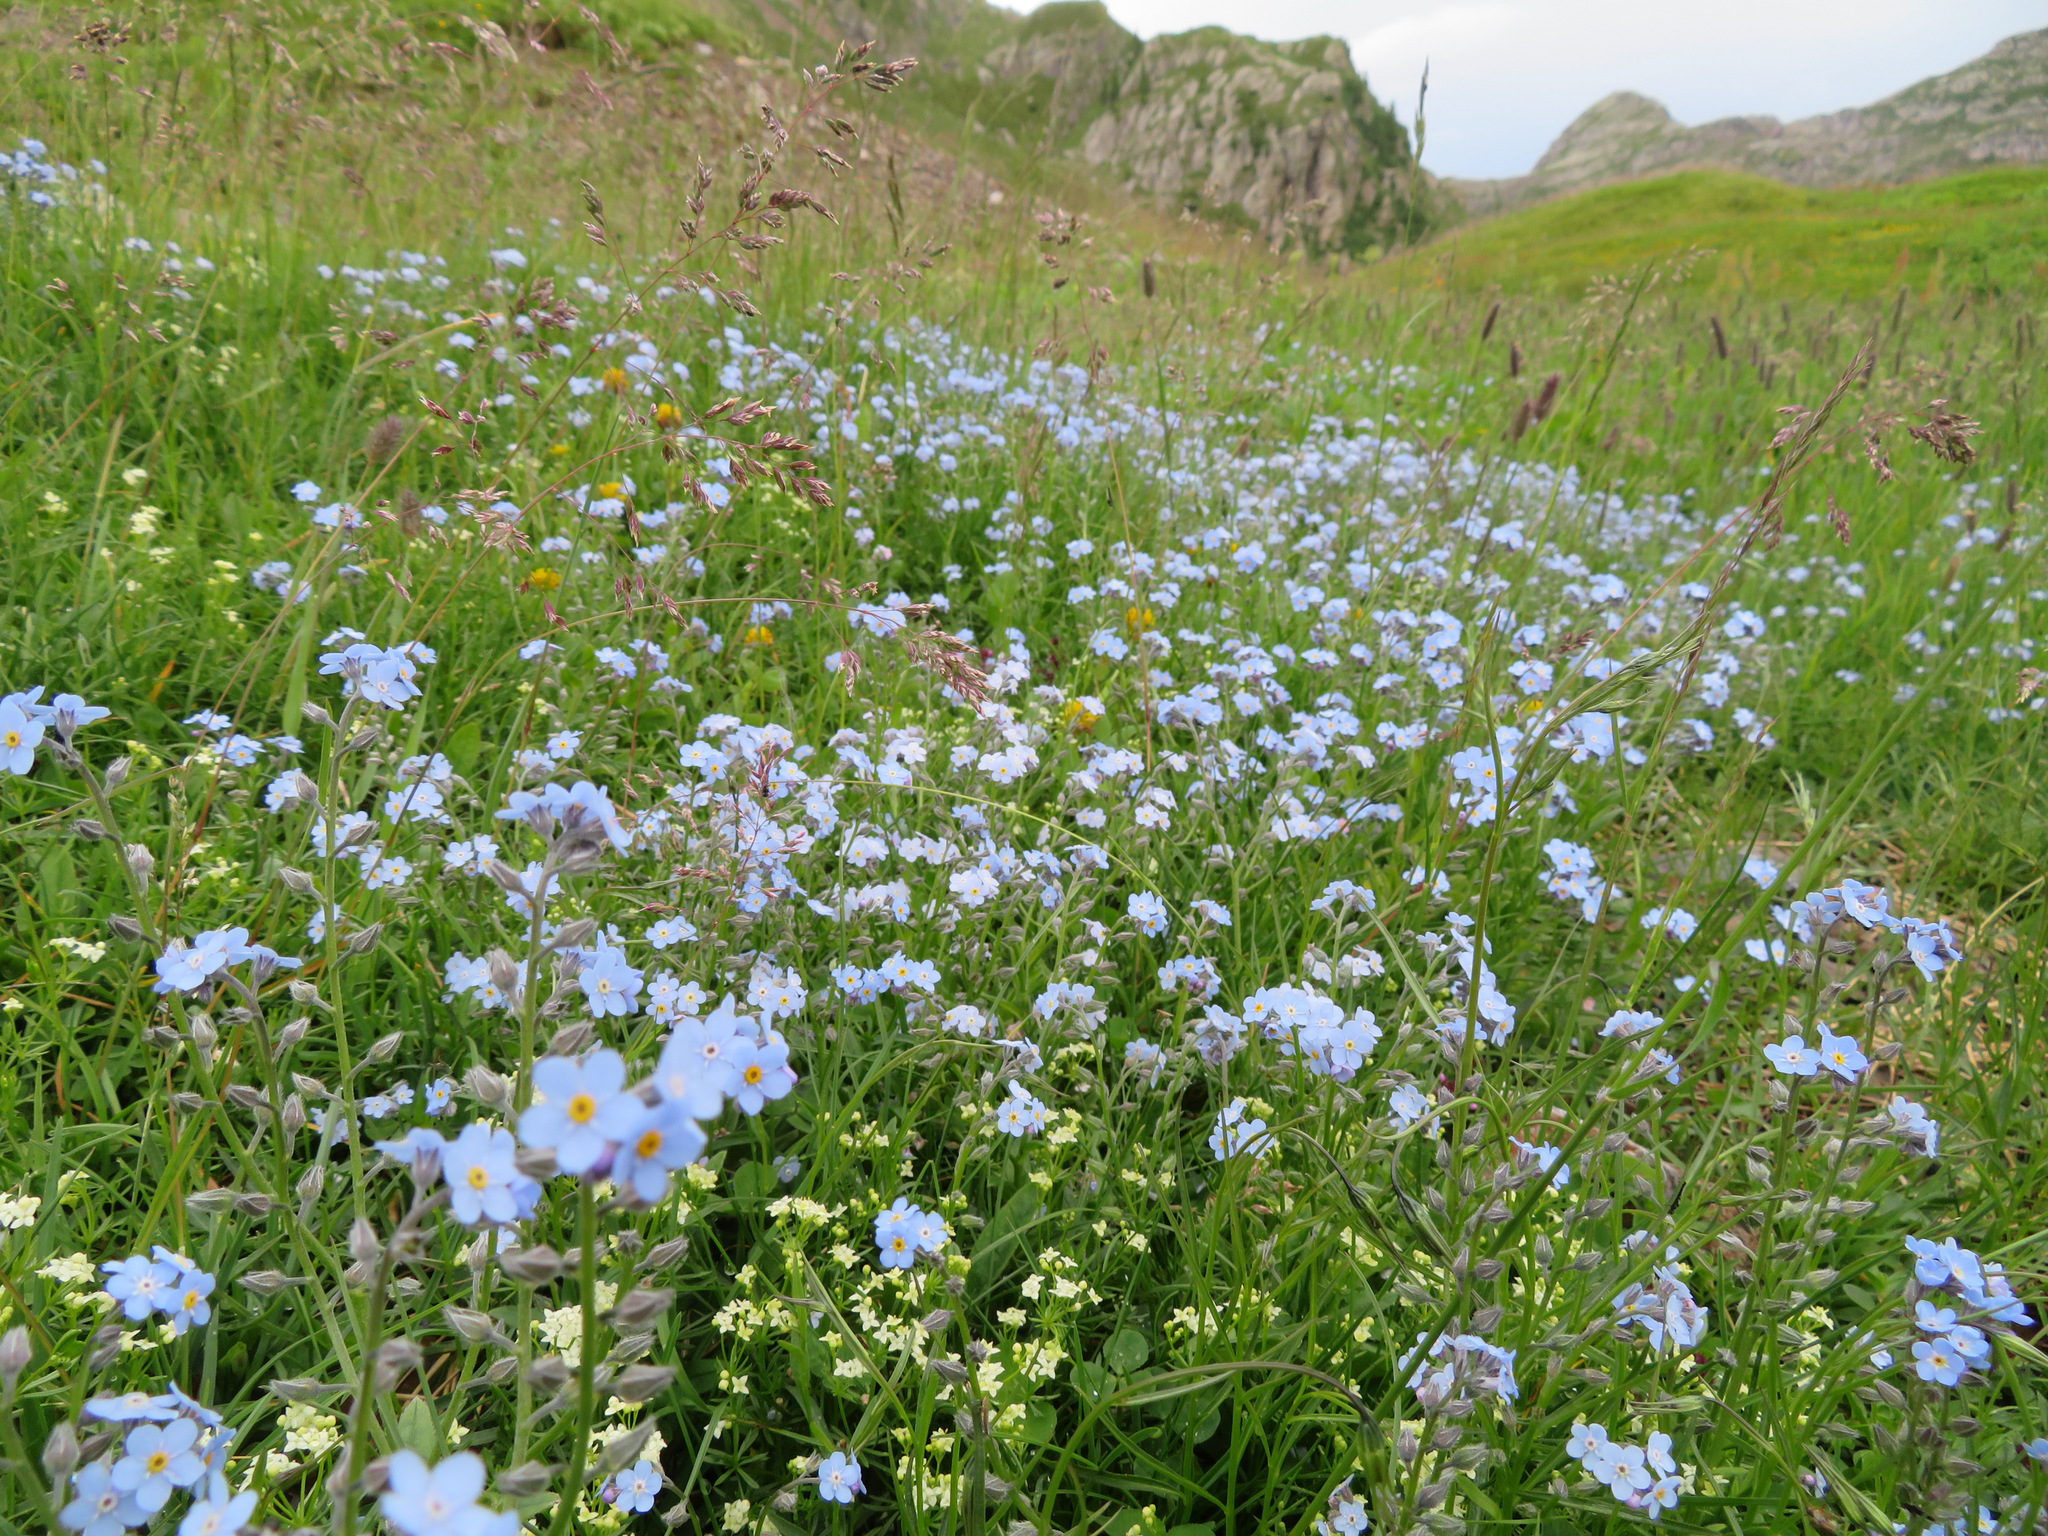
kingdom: Plantae
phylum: Tracheophyta
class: Magnoliopsida
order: Boraginales
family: Boraginaceae
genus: Myosotis
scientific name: Myosotis alpestris
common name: Alpine forget-me-not
